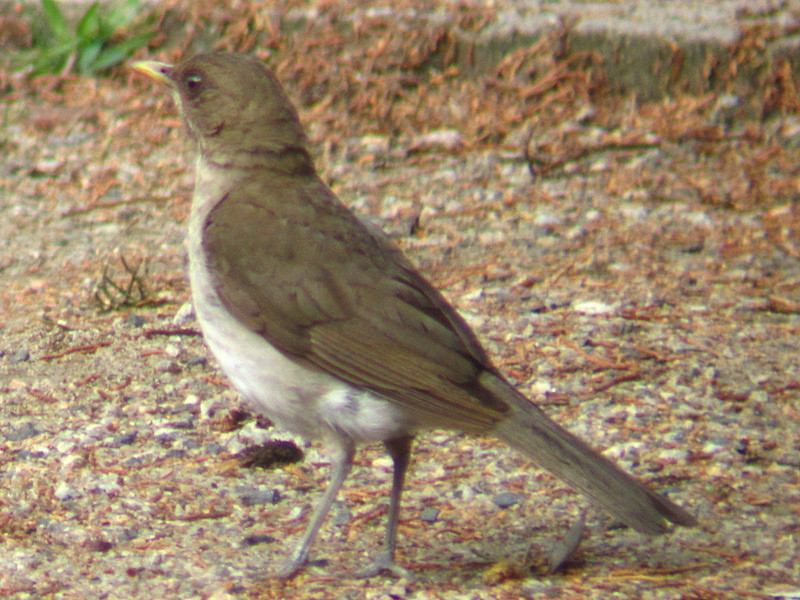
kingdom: Animalia
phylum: Chordata
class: Aves
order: Passeriformes
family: Turdidae
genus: Turdus
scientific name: Turdus amaurochalinus
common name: Creamy-bellied thrush
